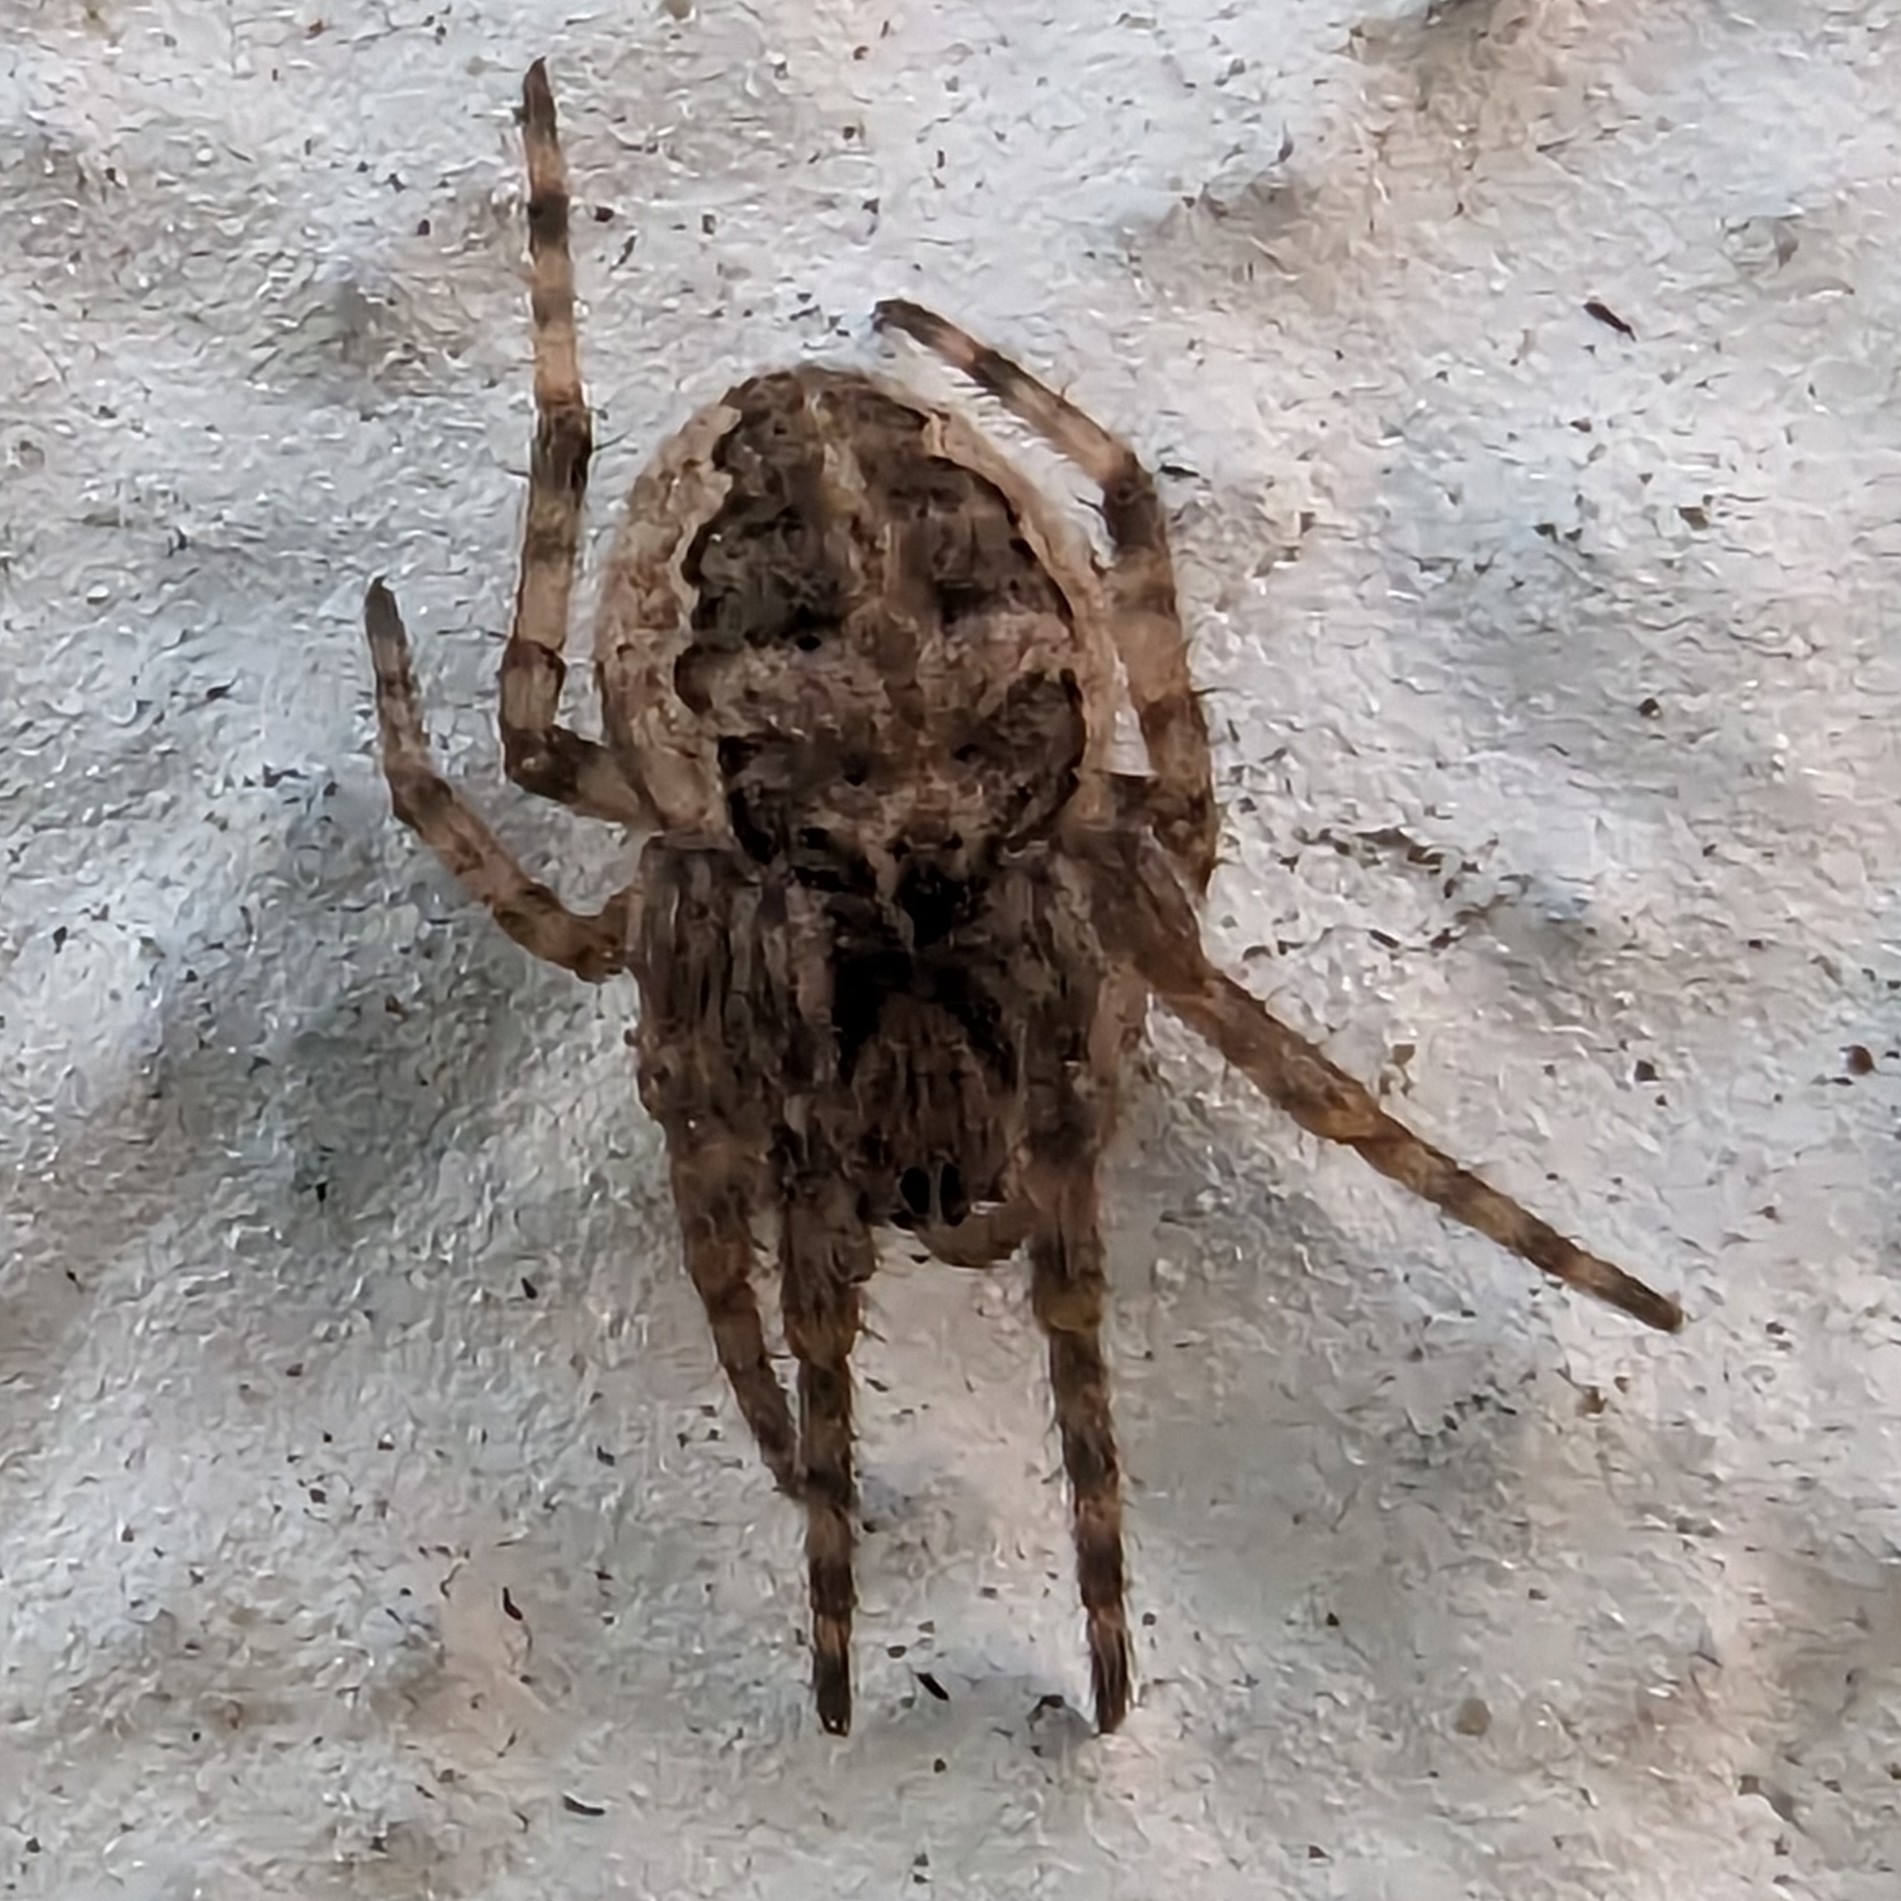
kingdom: Animalia
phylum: Arthropoda
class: Arachnida
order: Araneae
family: Araneidae
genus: Larinioides
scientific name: Larinioides sclopetarius
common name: Bridge orbweaver
